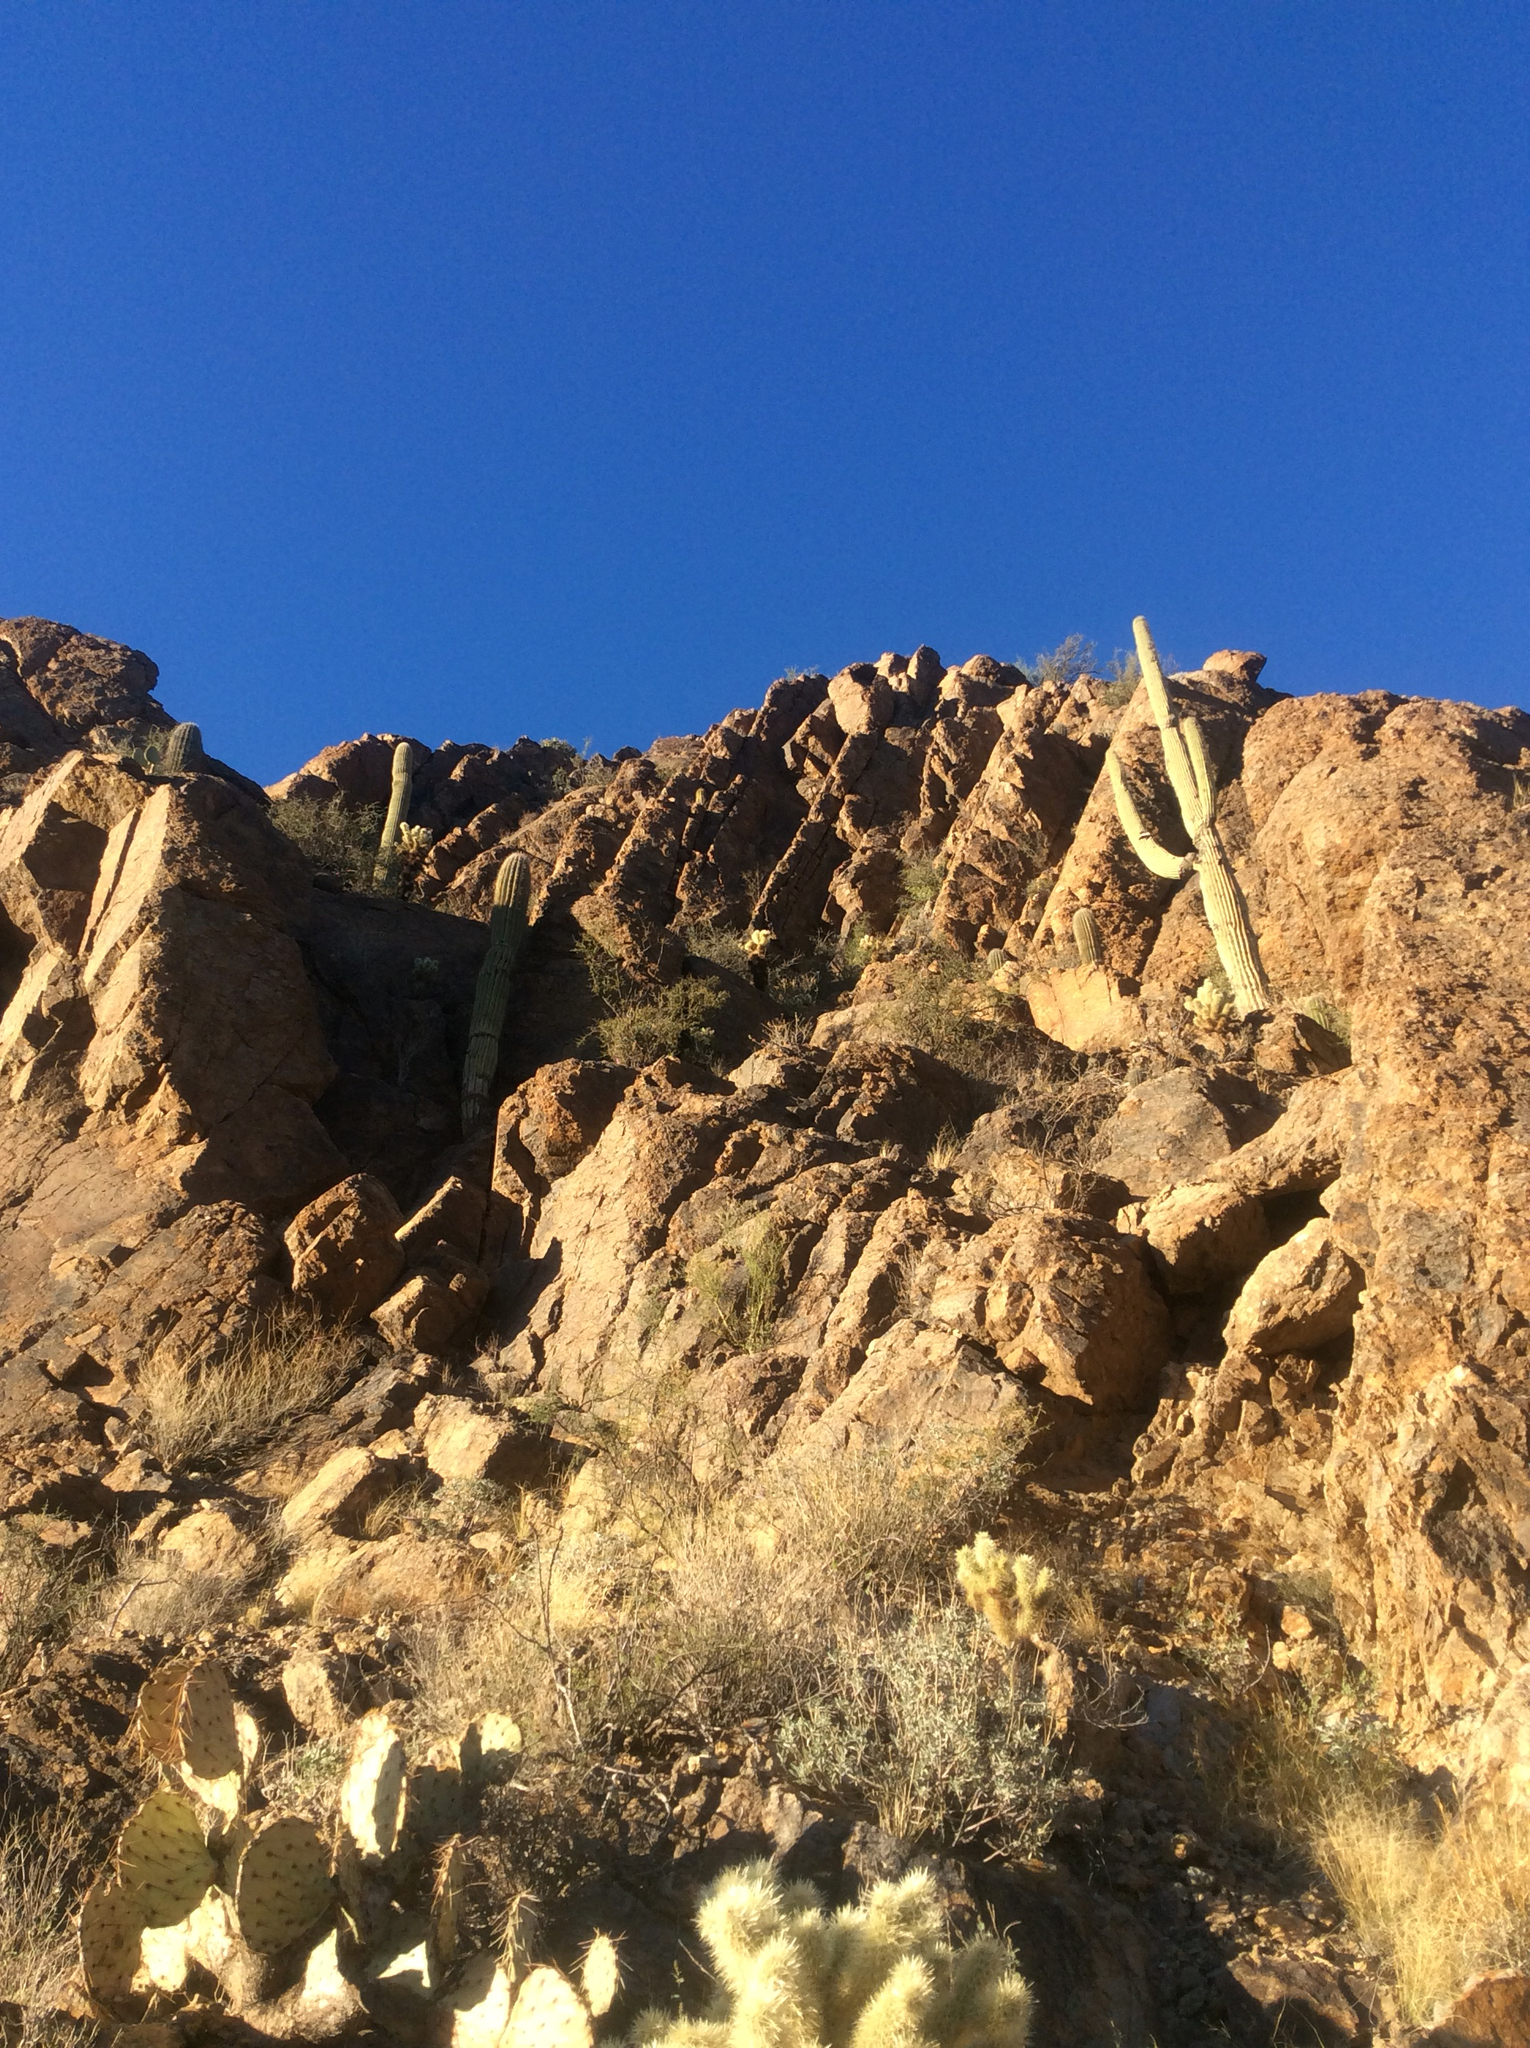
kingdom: Plantae
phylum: Tracheophyta
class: Magnoliopsida
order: Caryophyllales
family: Cactaceae
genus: Carnegiea
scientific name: Carnegiea gigantea
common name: Saguaro
